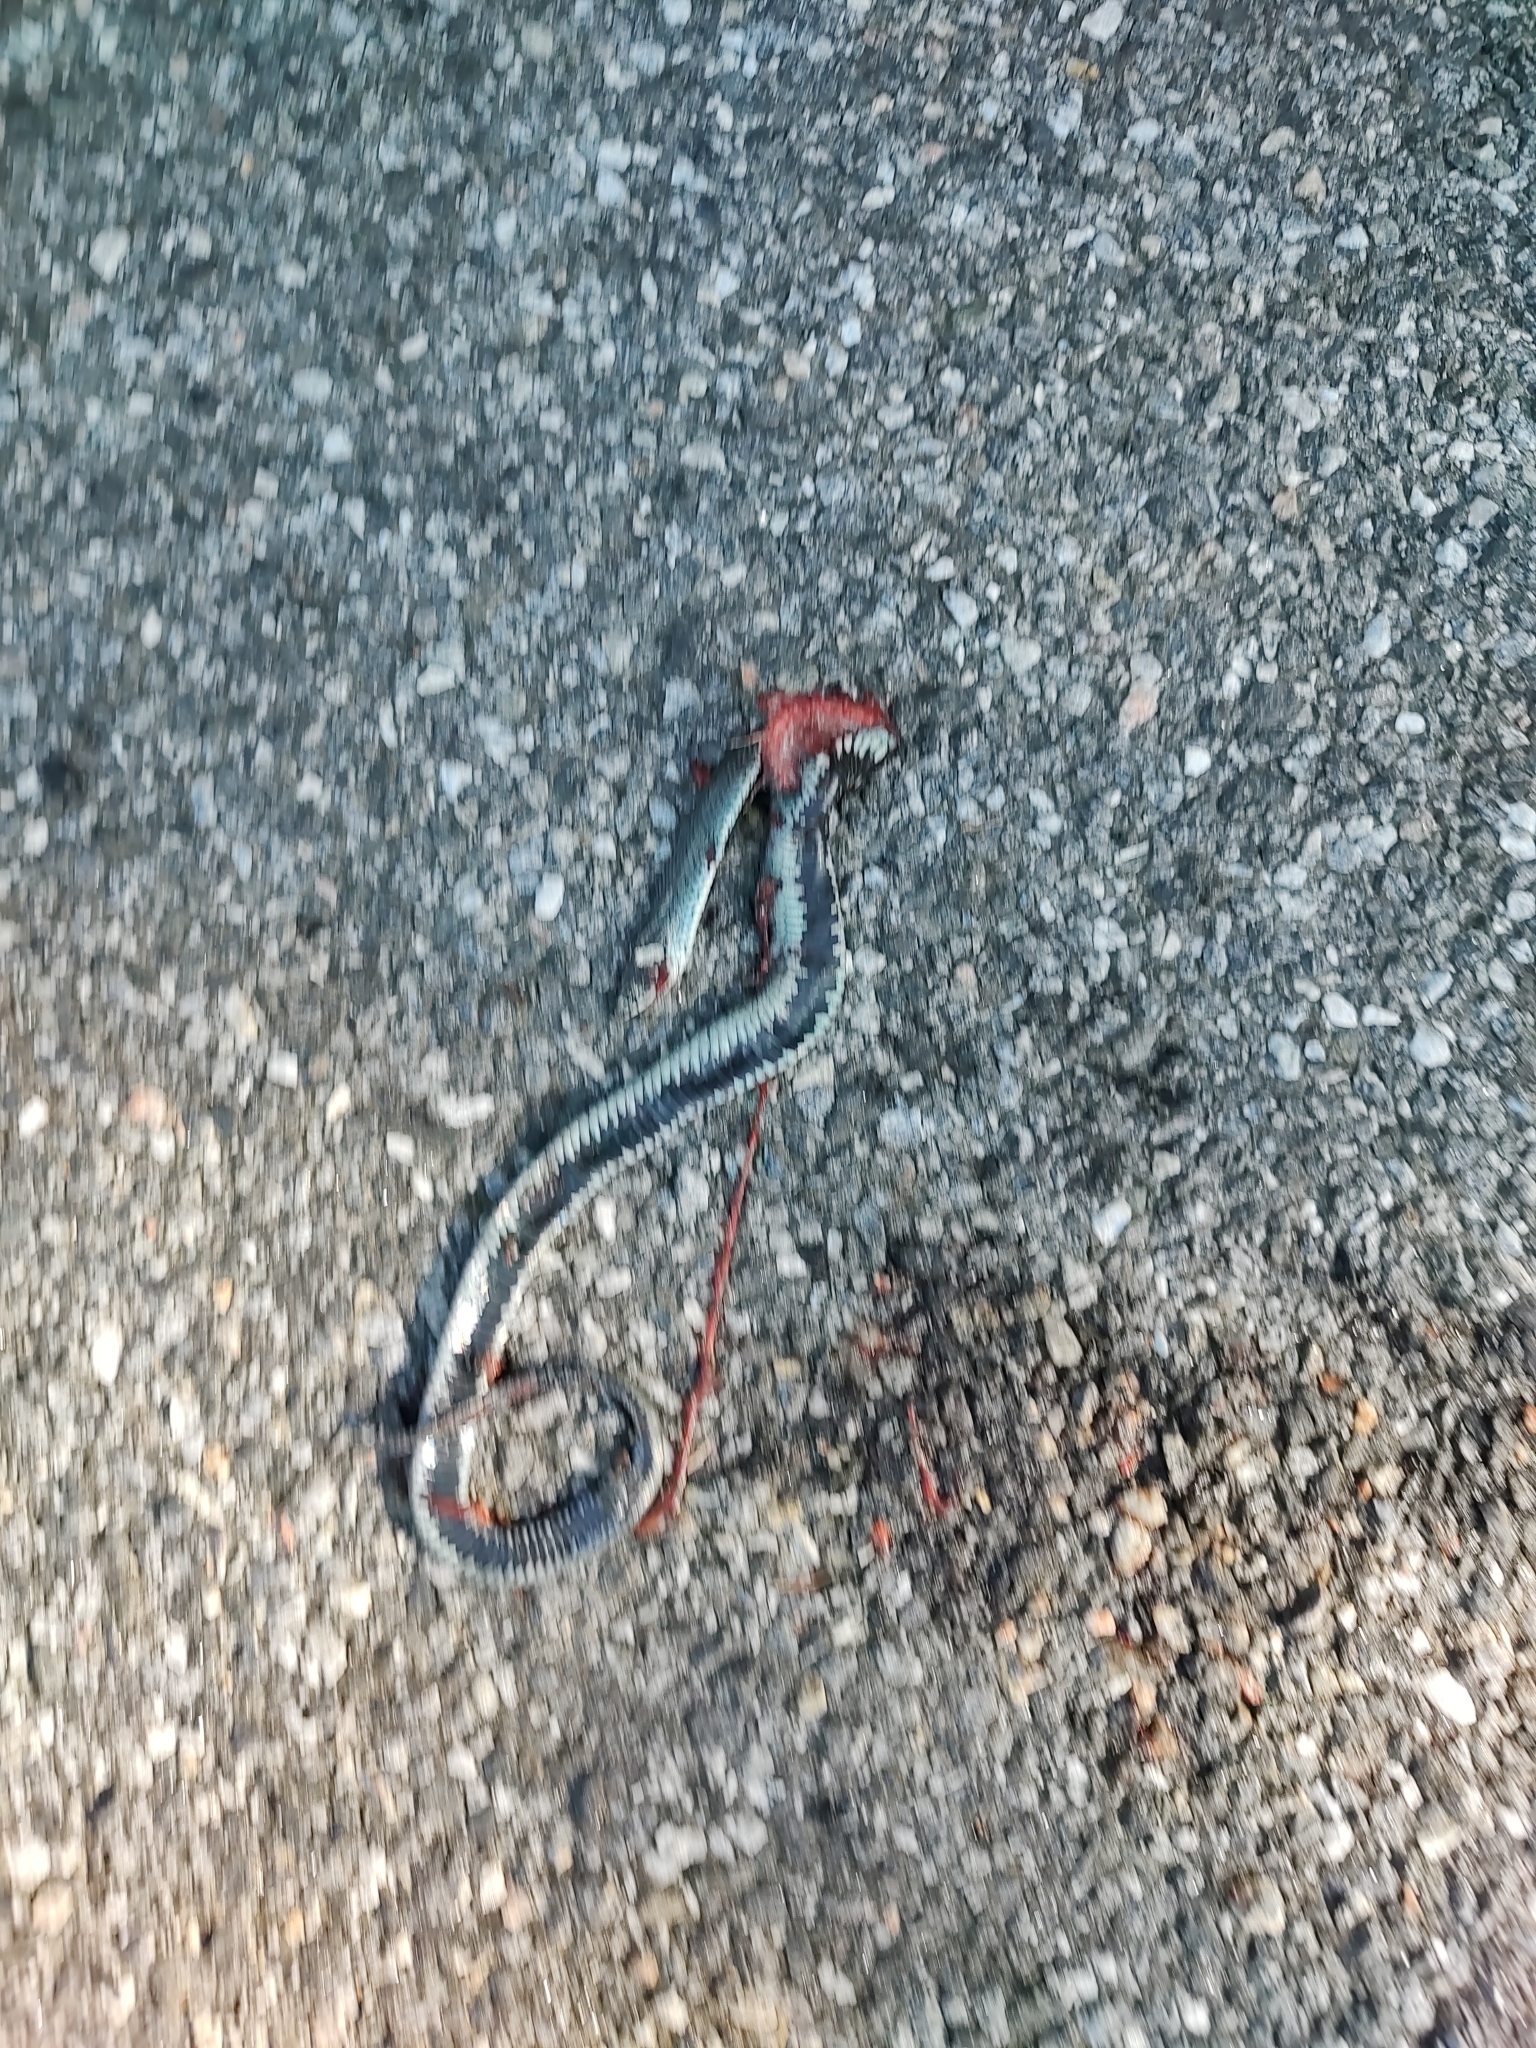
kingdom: Animalia
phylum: Chordata
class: Squamata
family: Colubridae
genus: Natrix
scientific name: Natrix natrix
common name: Grass snake
